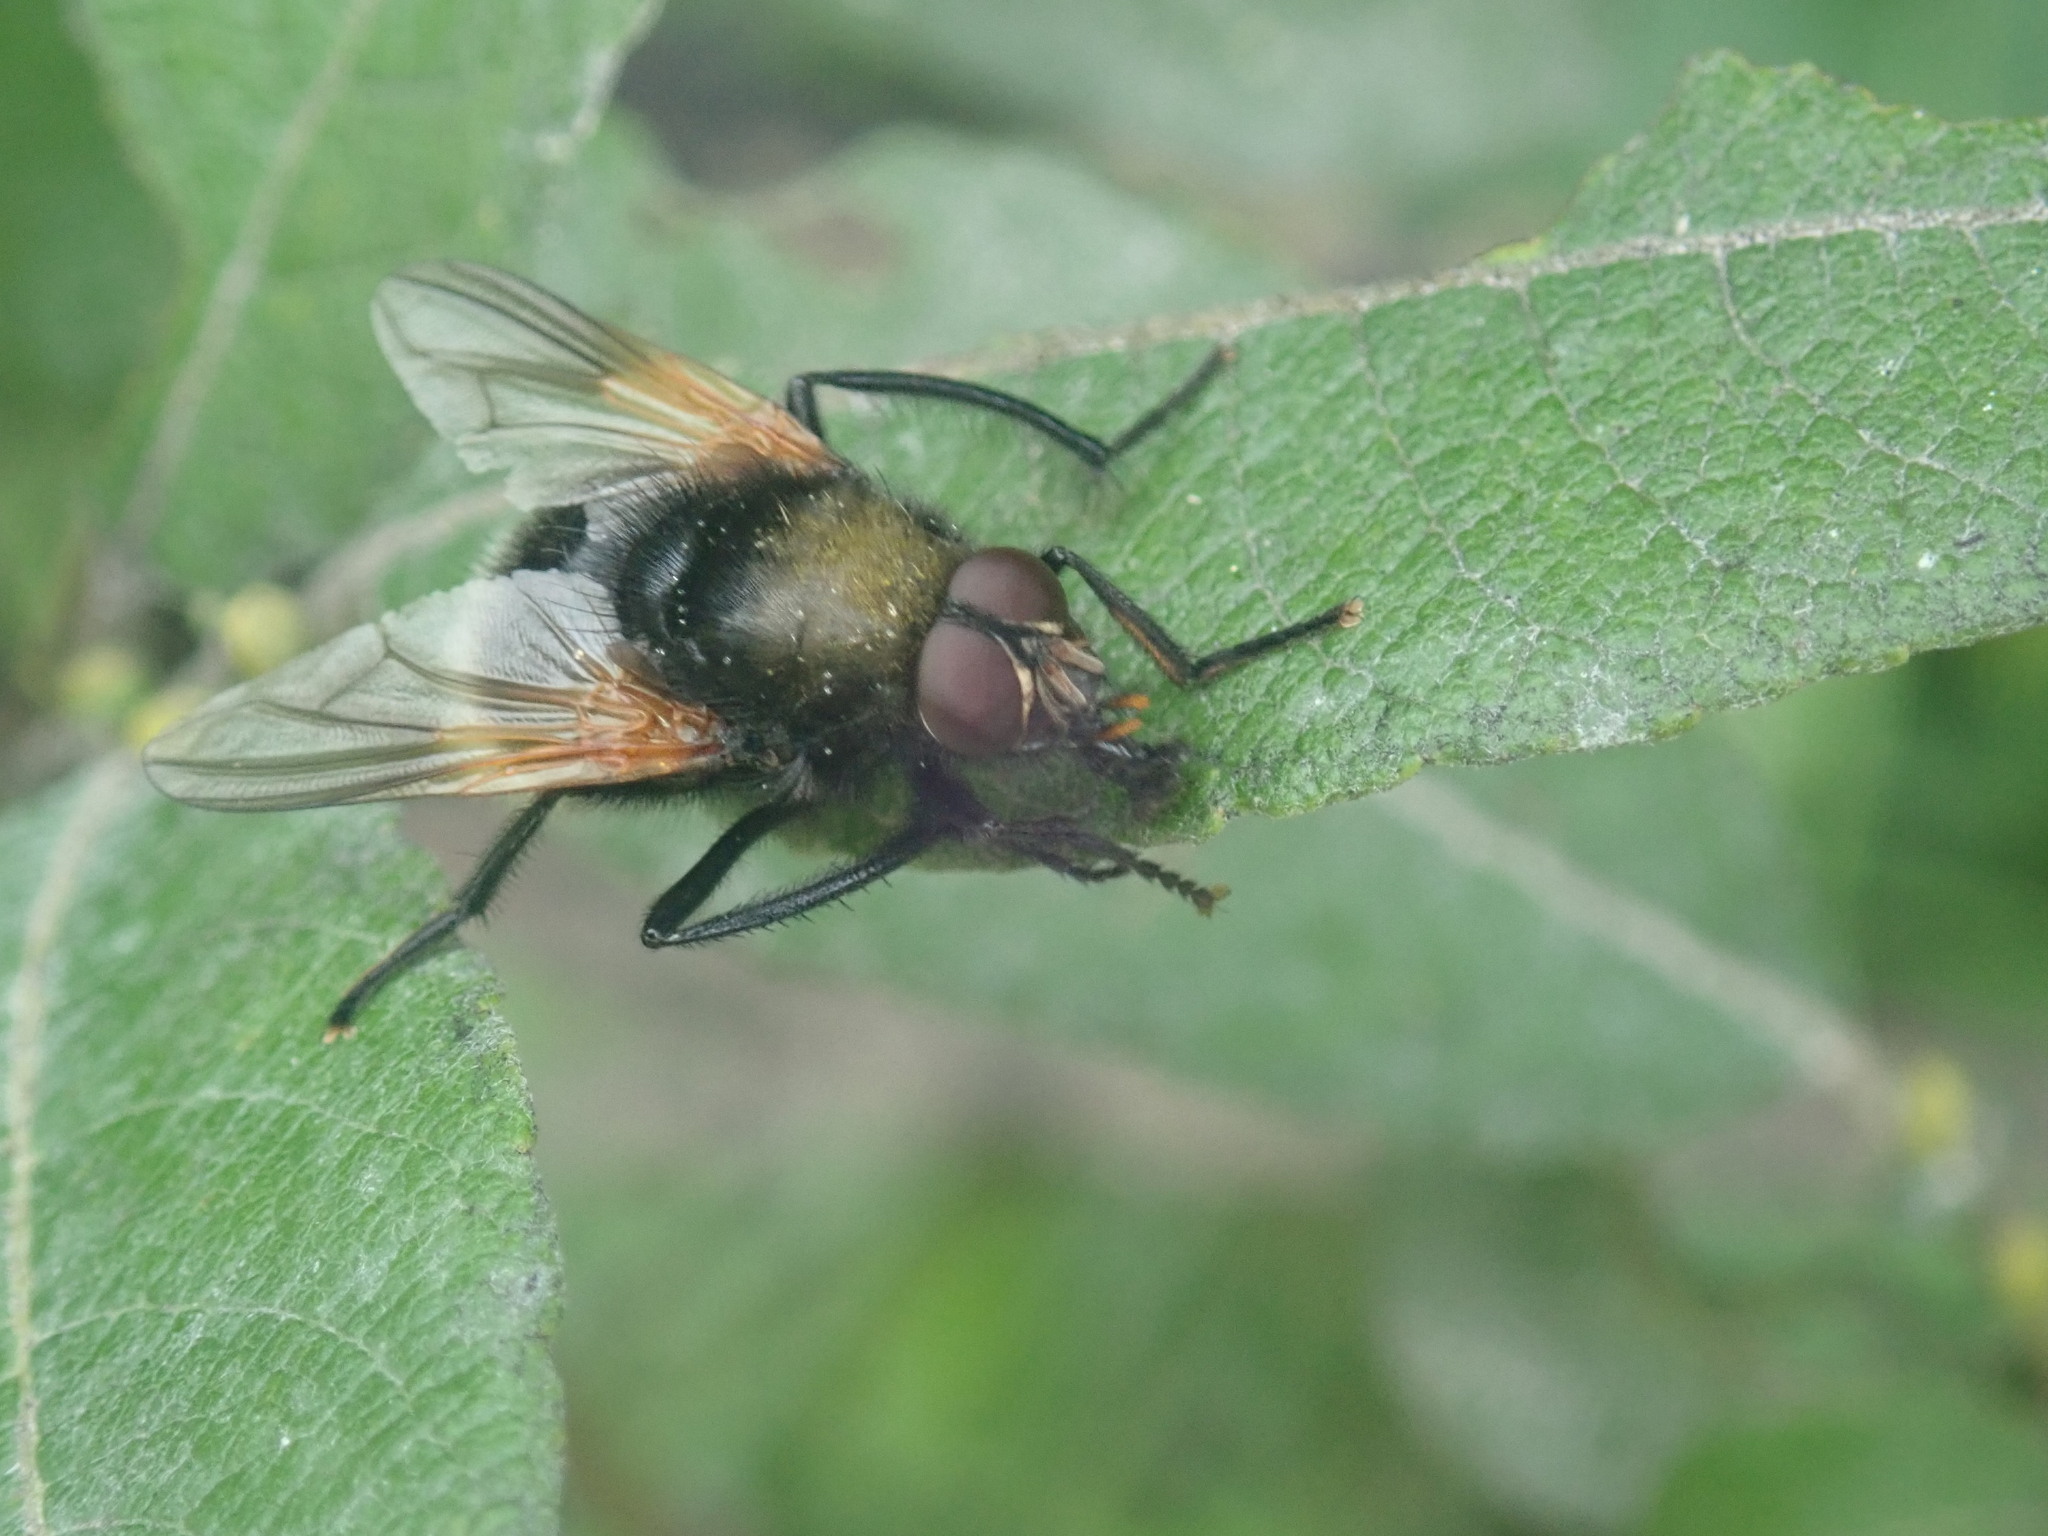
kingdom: Animalia
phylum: Arthropoda
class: Insecta
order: Diptera
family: Muscidae
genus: Mesembrina
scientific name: Mesembrina mystacea
